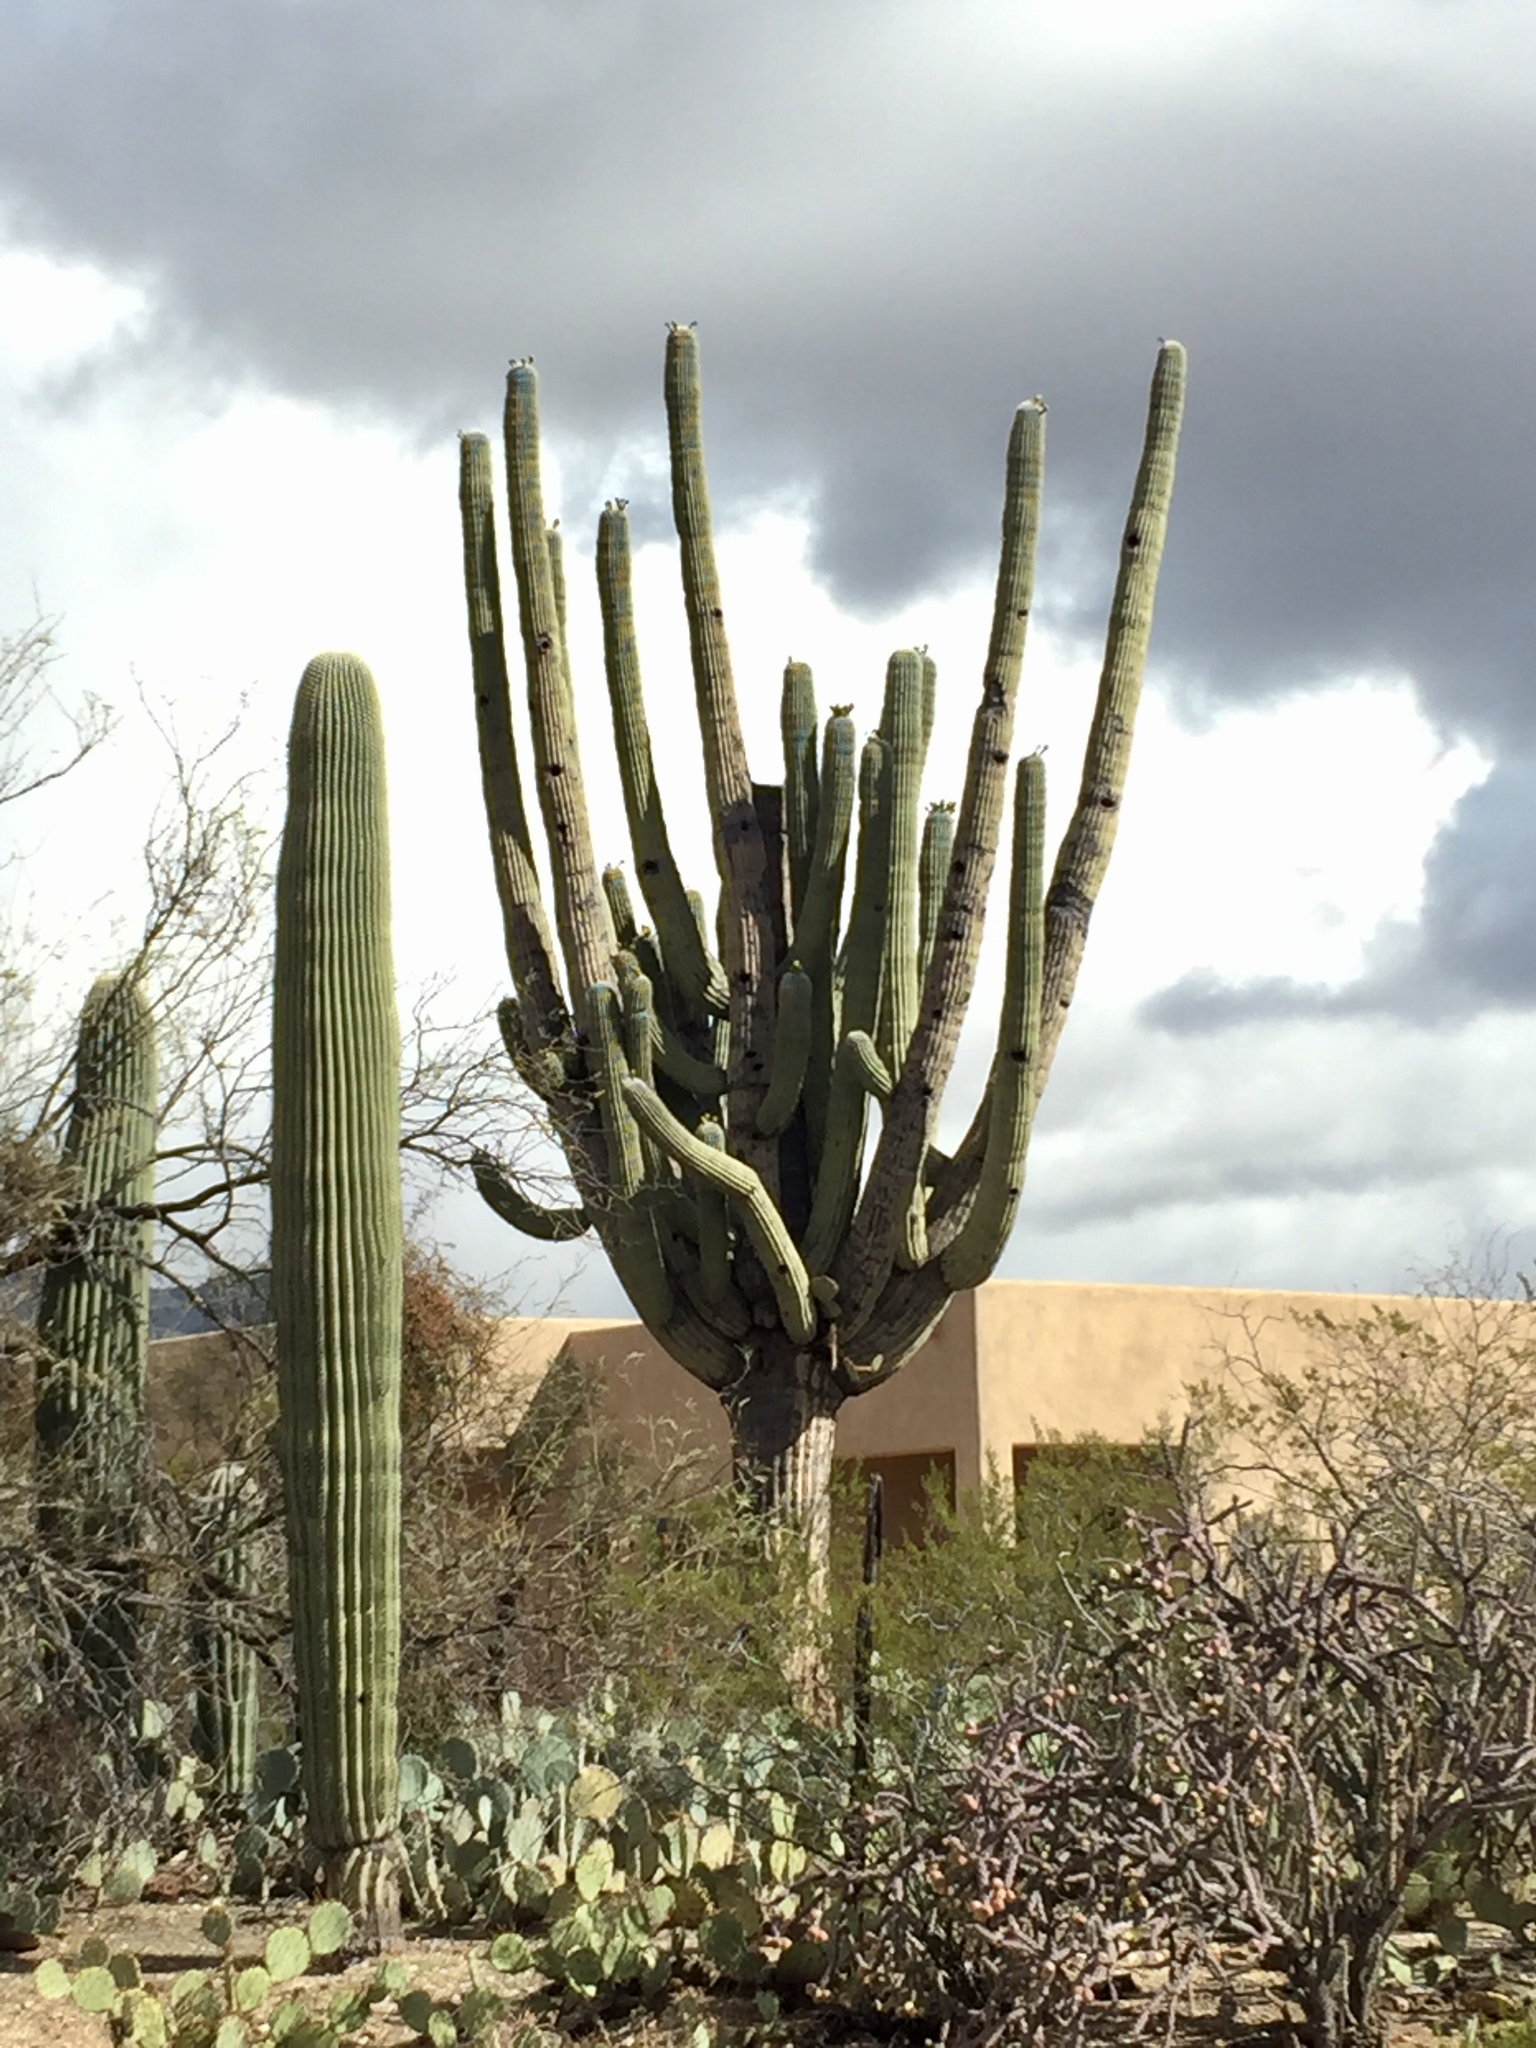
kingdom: Plantae
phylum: Tracheophyta
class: Magnoliopsida
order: Caryophyllales
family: Cactaceae
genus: Carnegiea
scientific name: Carnegiea gigantea
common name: Saguaro
